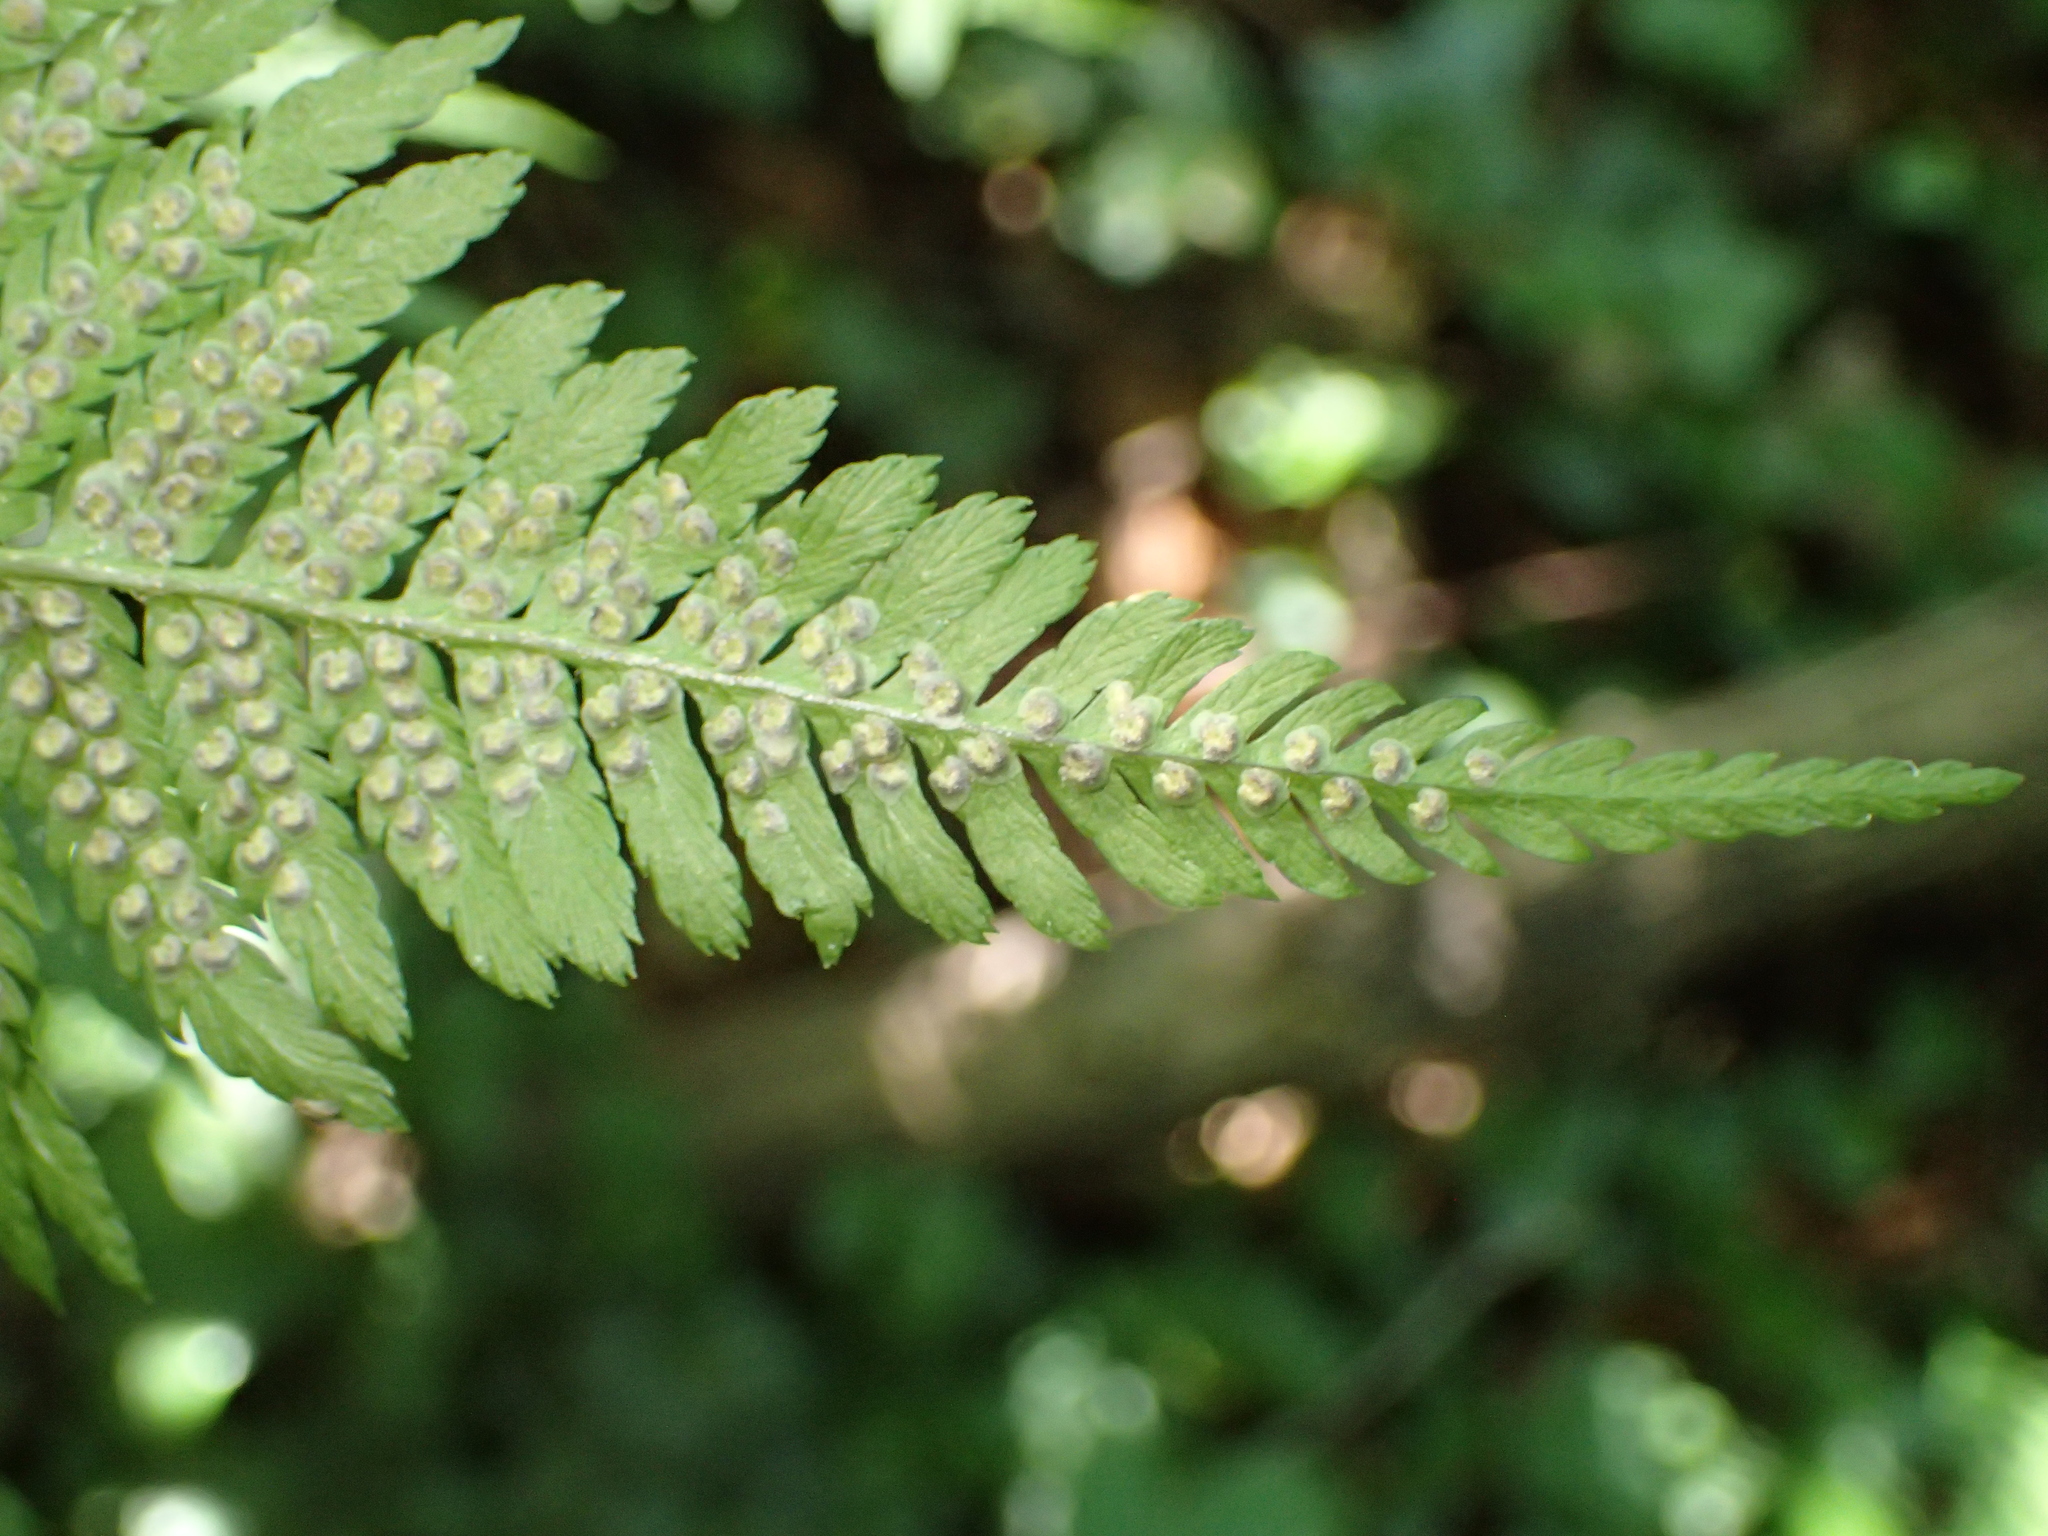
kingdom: Plantae
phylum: Tracheophyta
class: Polypodiopsida
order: Polypodiales
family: Dryopteridaceae
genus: Dryopteris
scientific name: Dryopteris filix-mas
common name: Male fern
